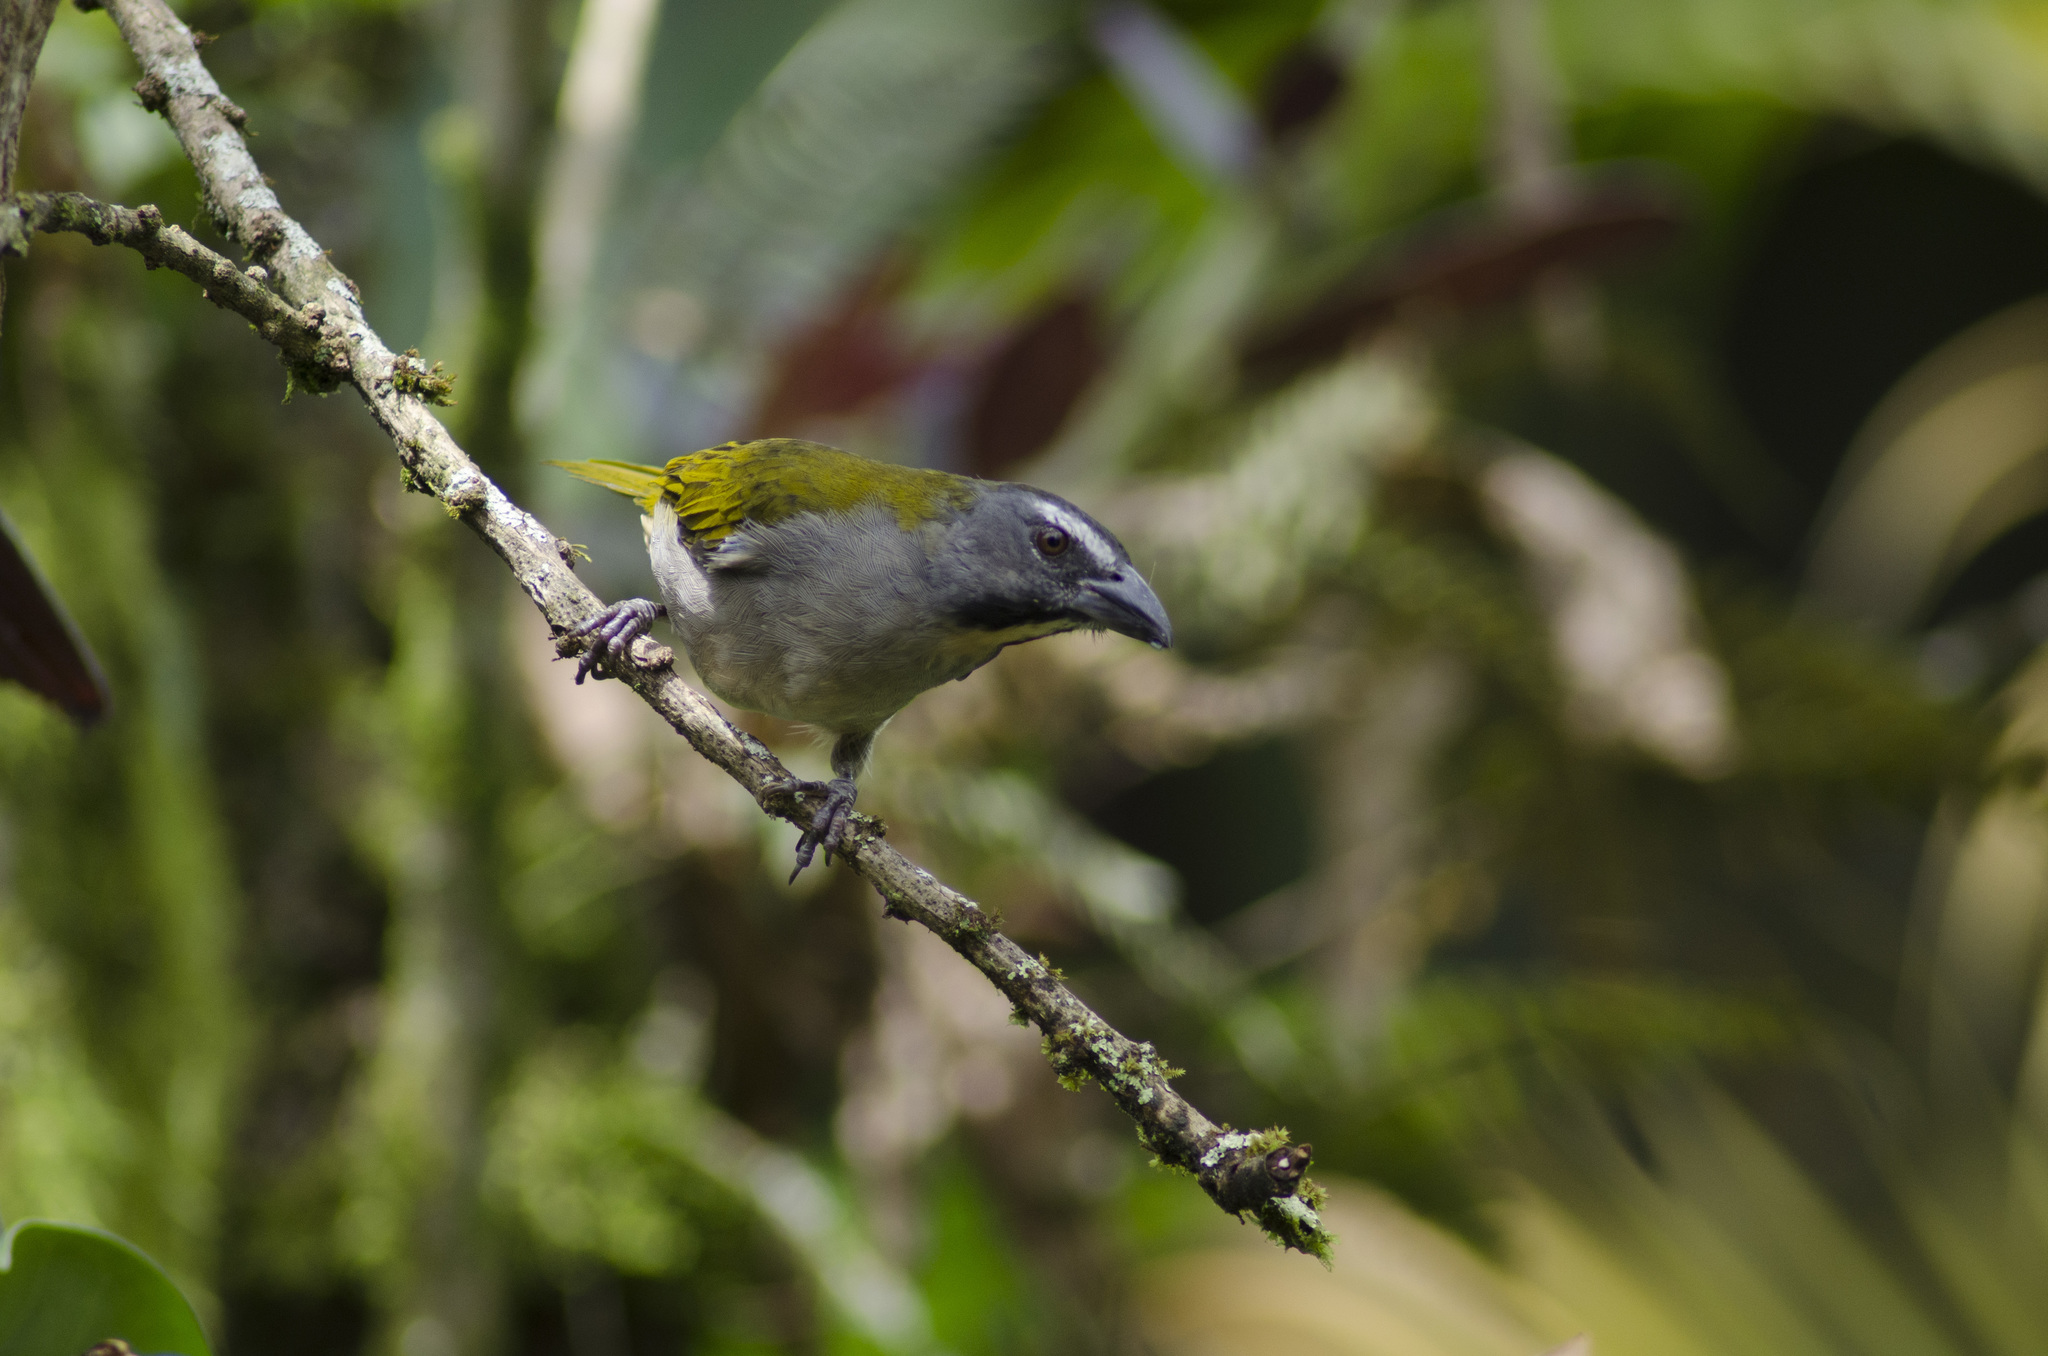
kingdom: Animalia
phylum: Chordata
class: Aves
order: Passeriformes
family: Thraupidae
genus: Saltator
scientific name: Saltator maximus
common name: Buff-throated saltator
